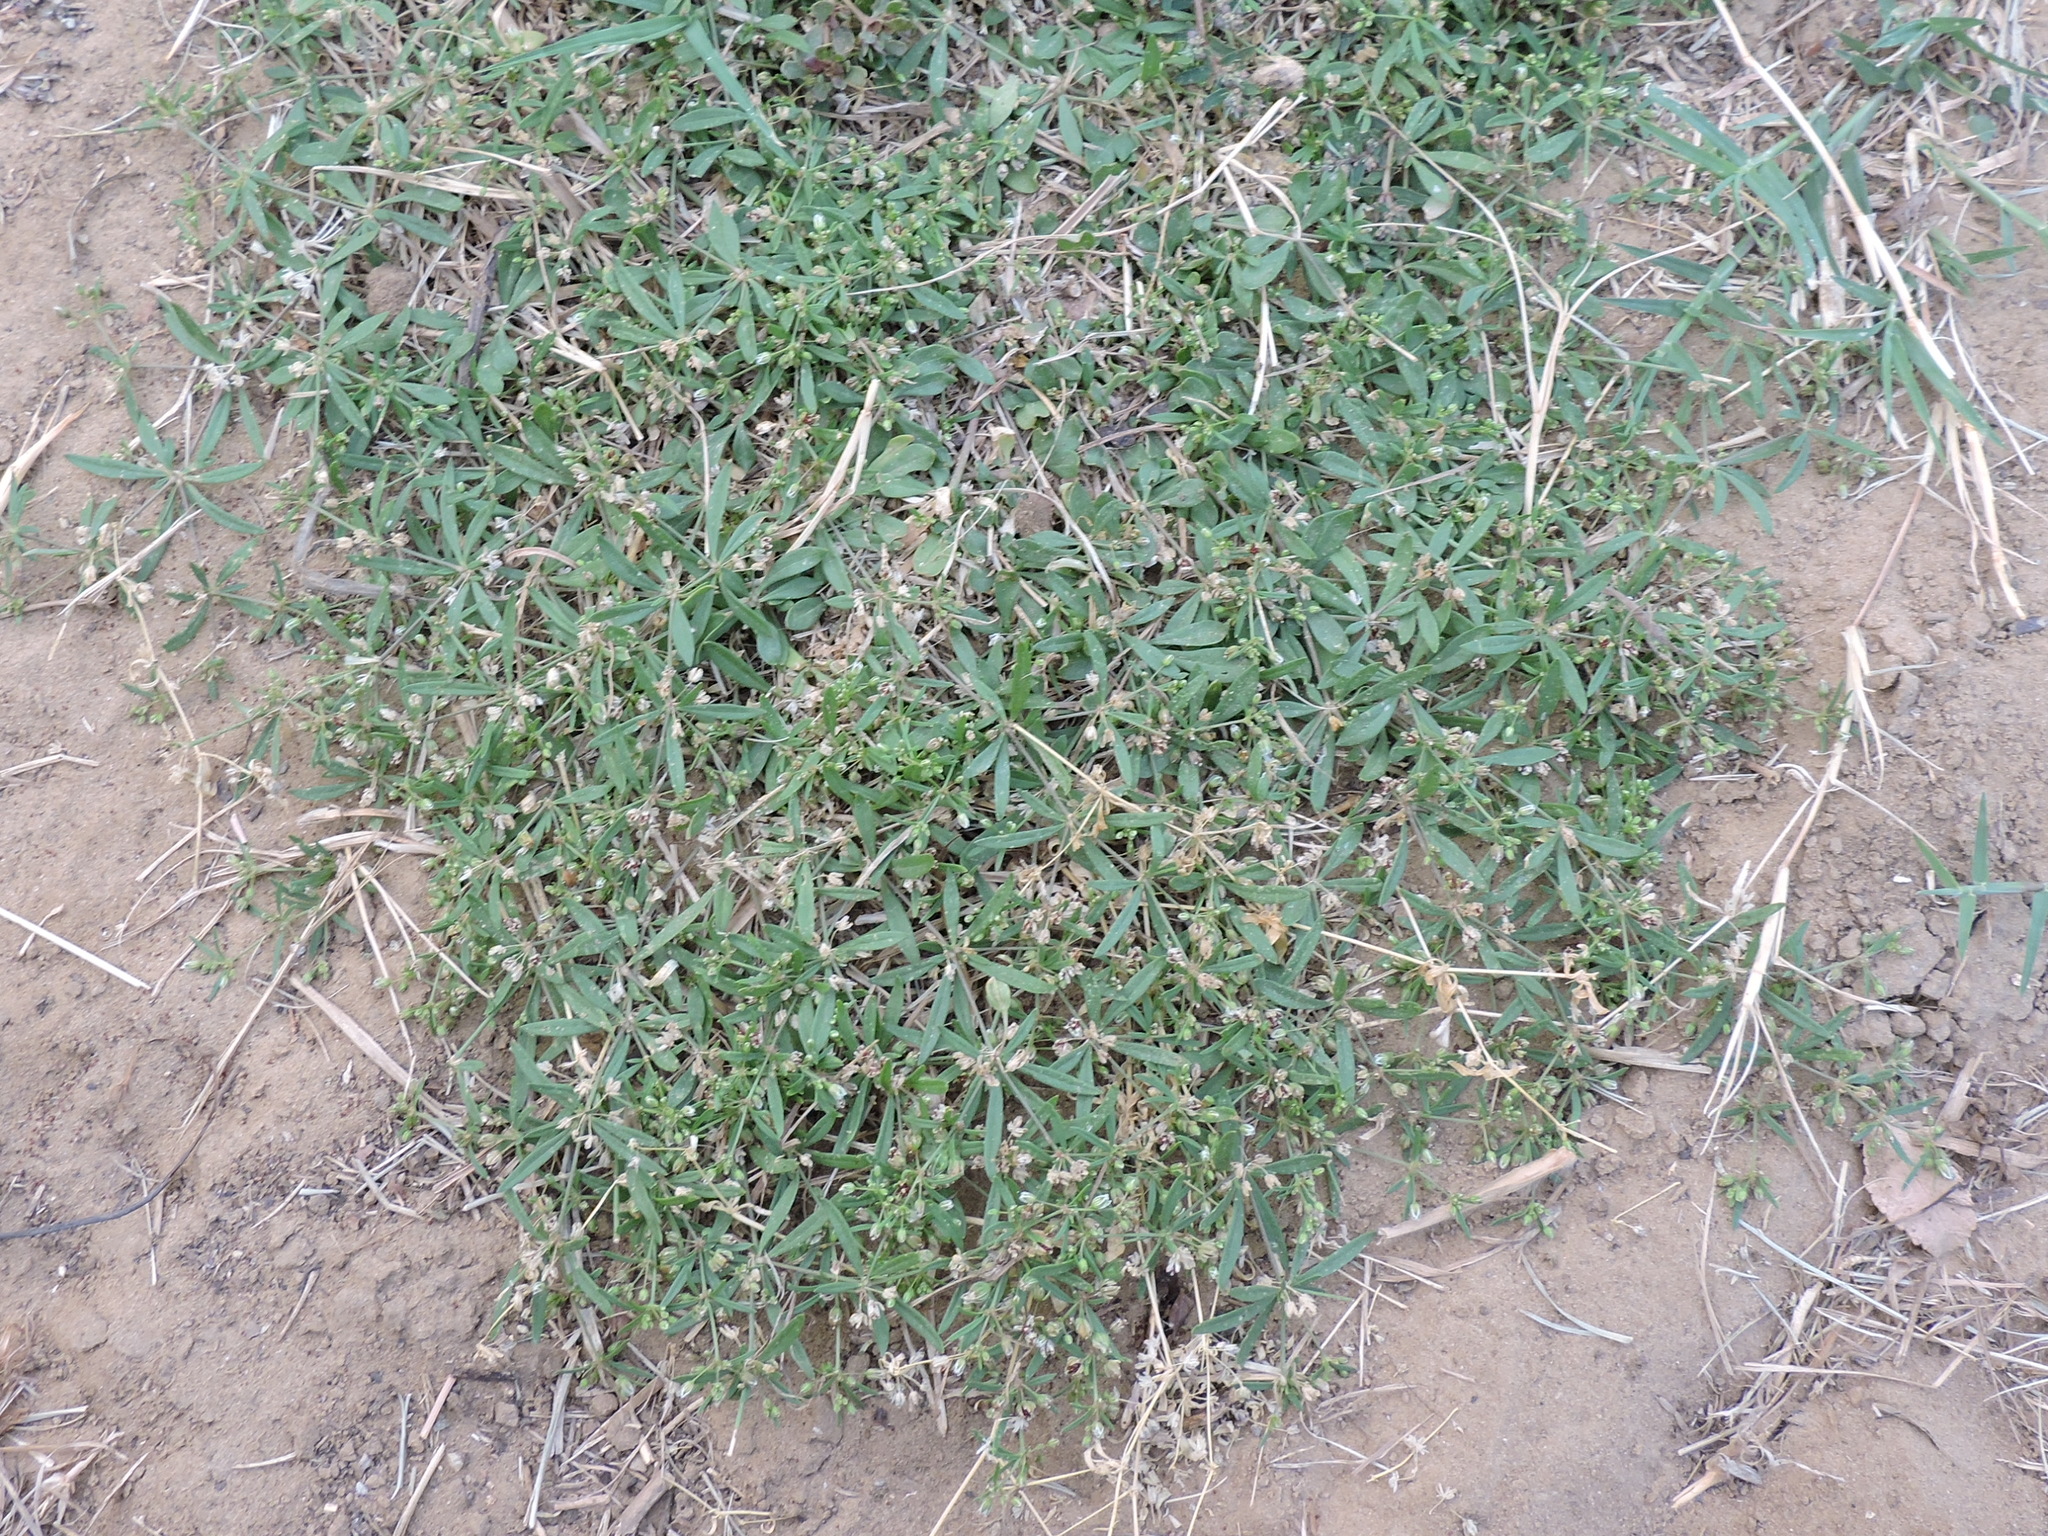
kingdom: Plantae
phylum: Tracheophyta
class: Magnoliopsida
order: Caryophyllales
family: Molluginaceae
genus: Mollugo
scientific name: Mollugo verticillata
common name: Green carpetweed
